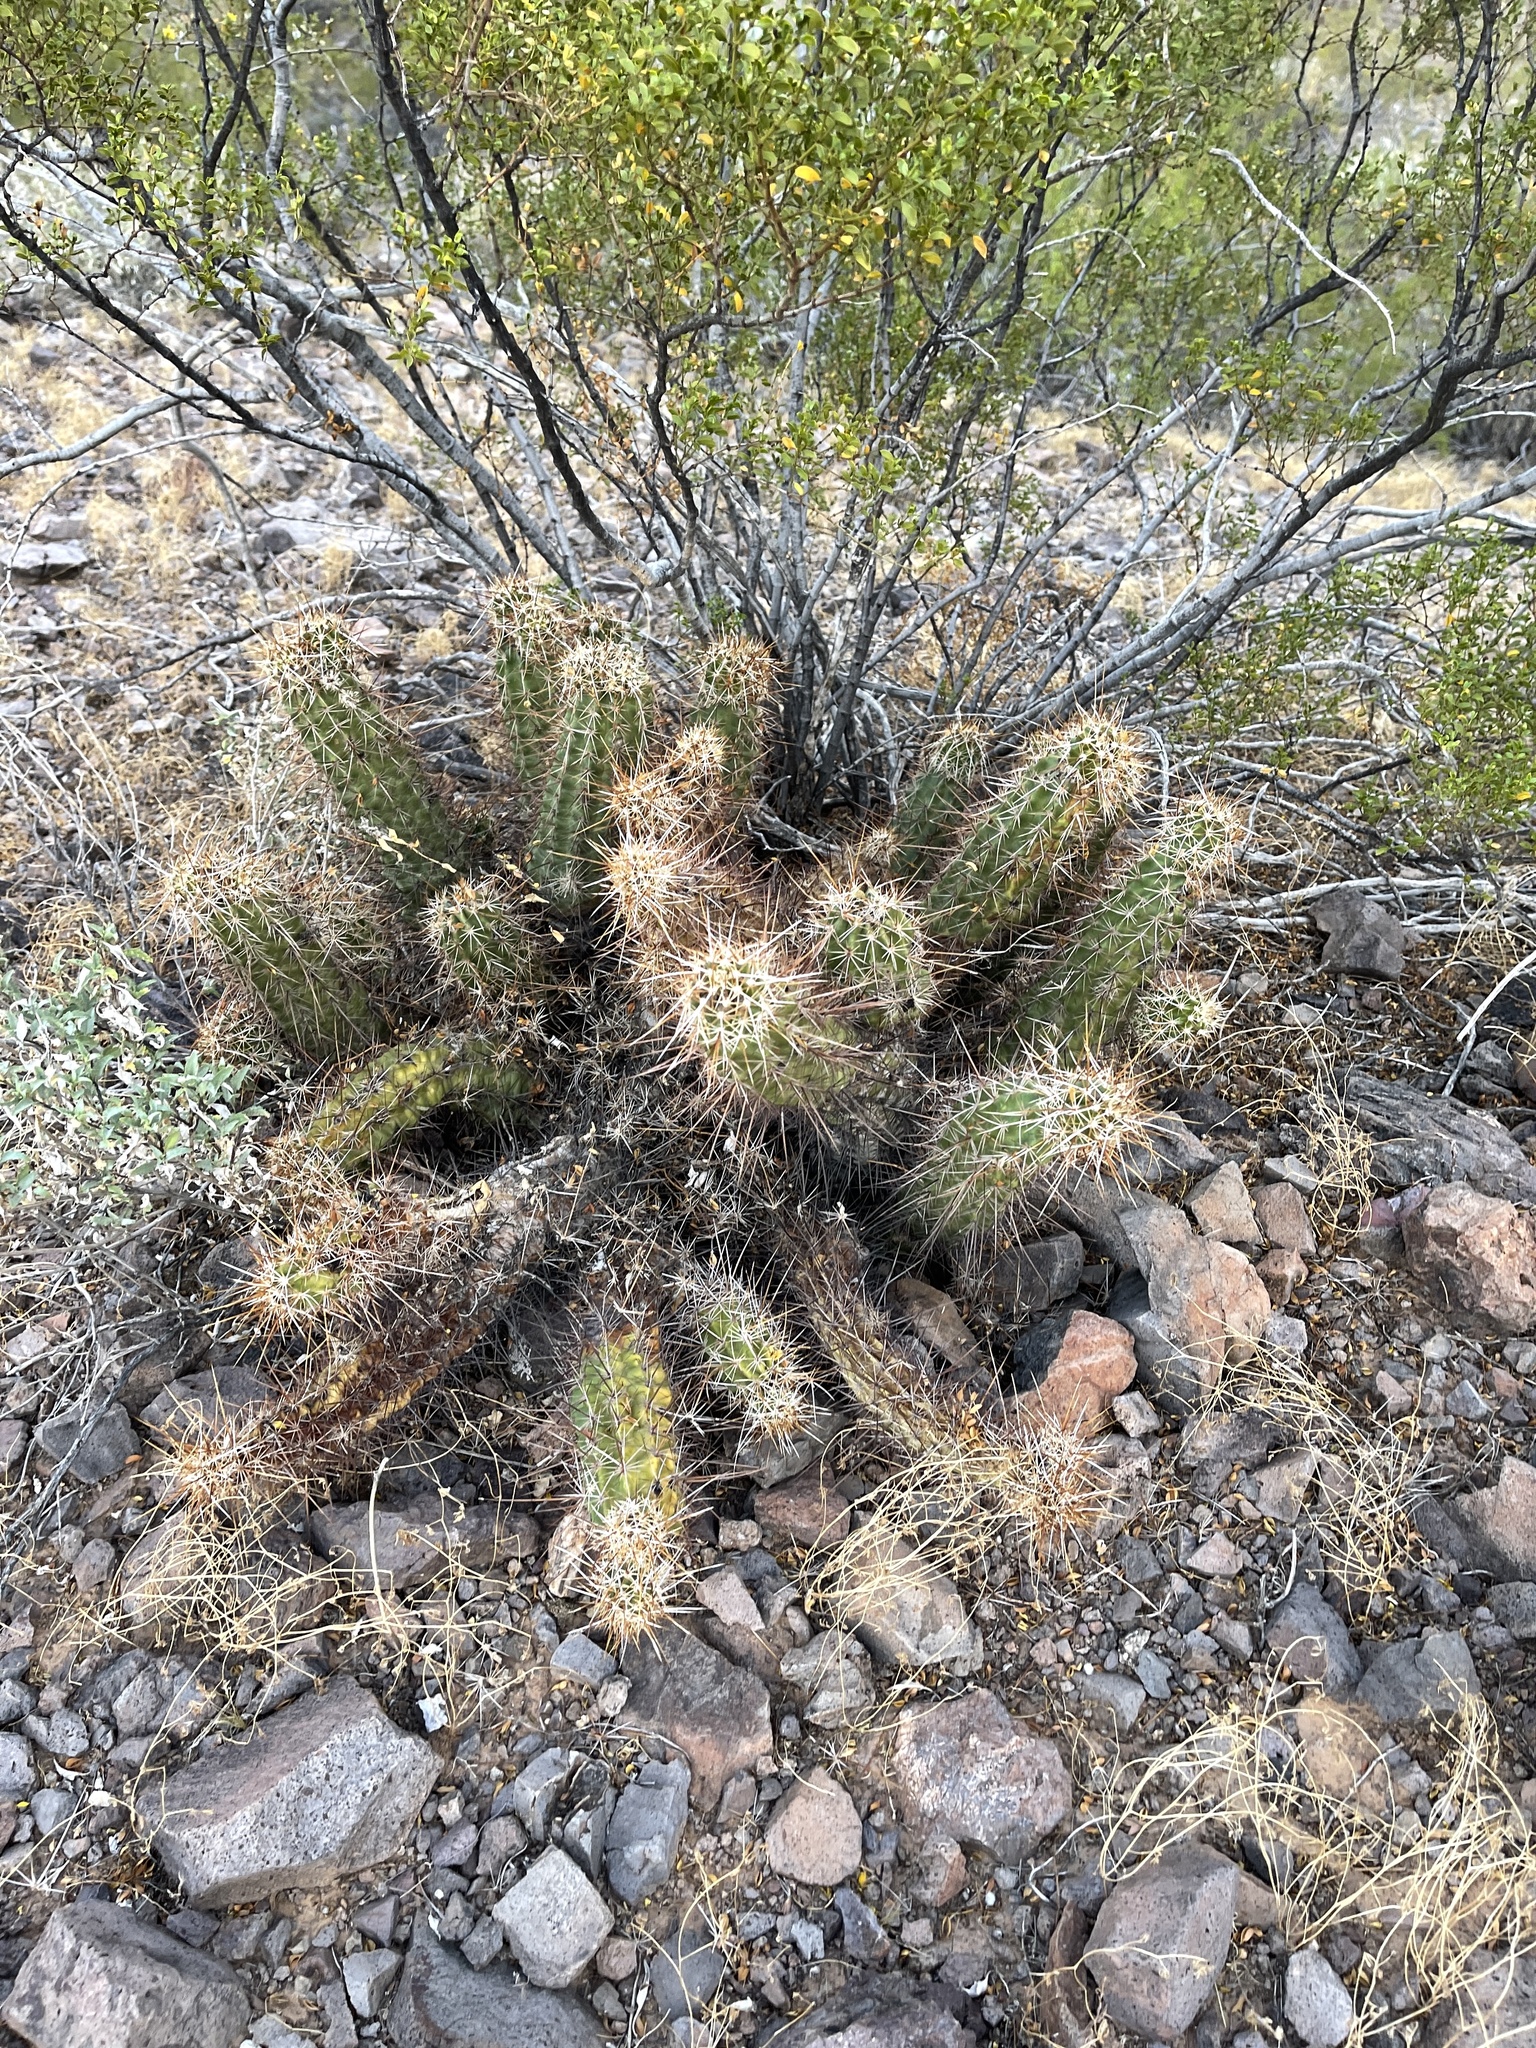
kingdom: Plantae
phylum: Tracheophyta
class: Magnoliopsida
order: Caryophyllales
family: Cactaceae
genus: Echinocereus
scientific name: Echinocereus engelmannii
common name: Engelmann's hedgehog cactus
